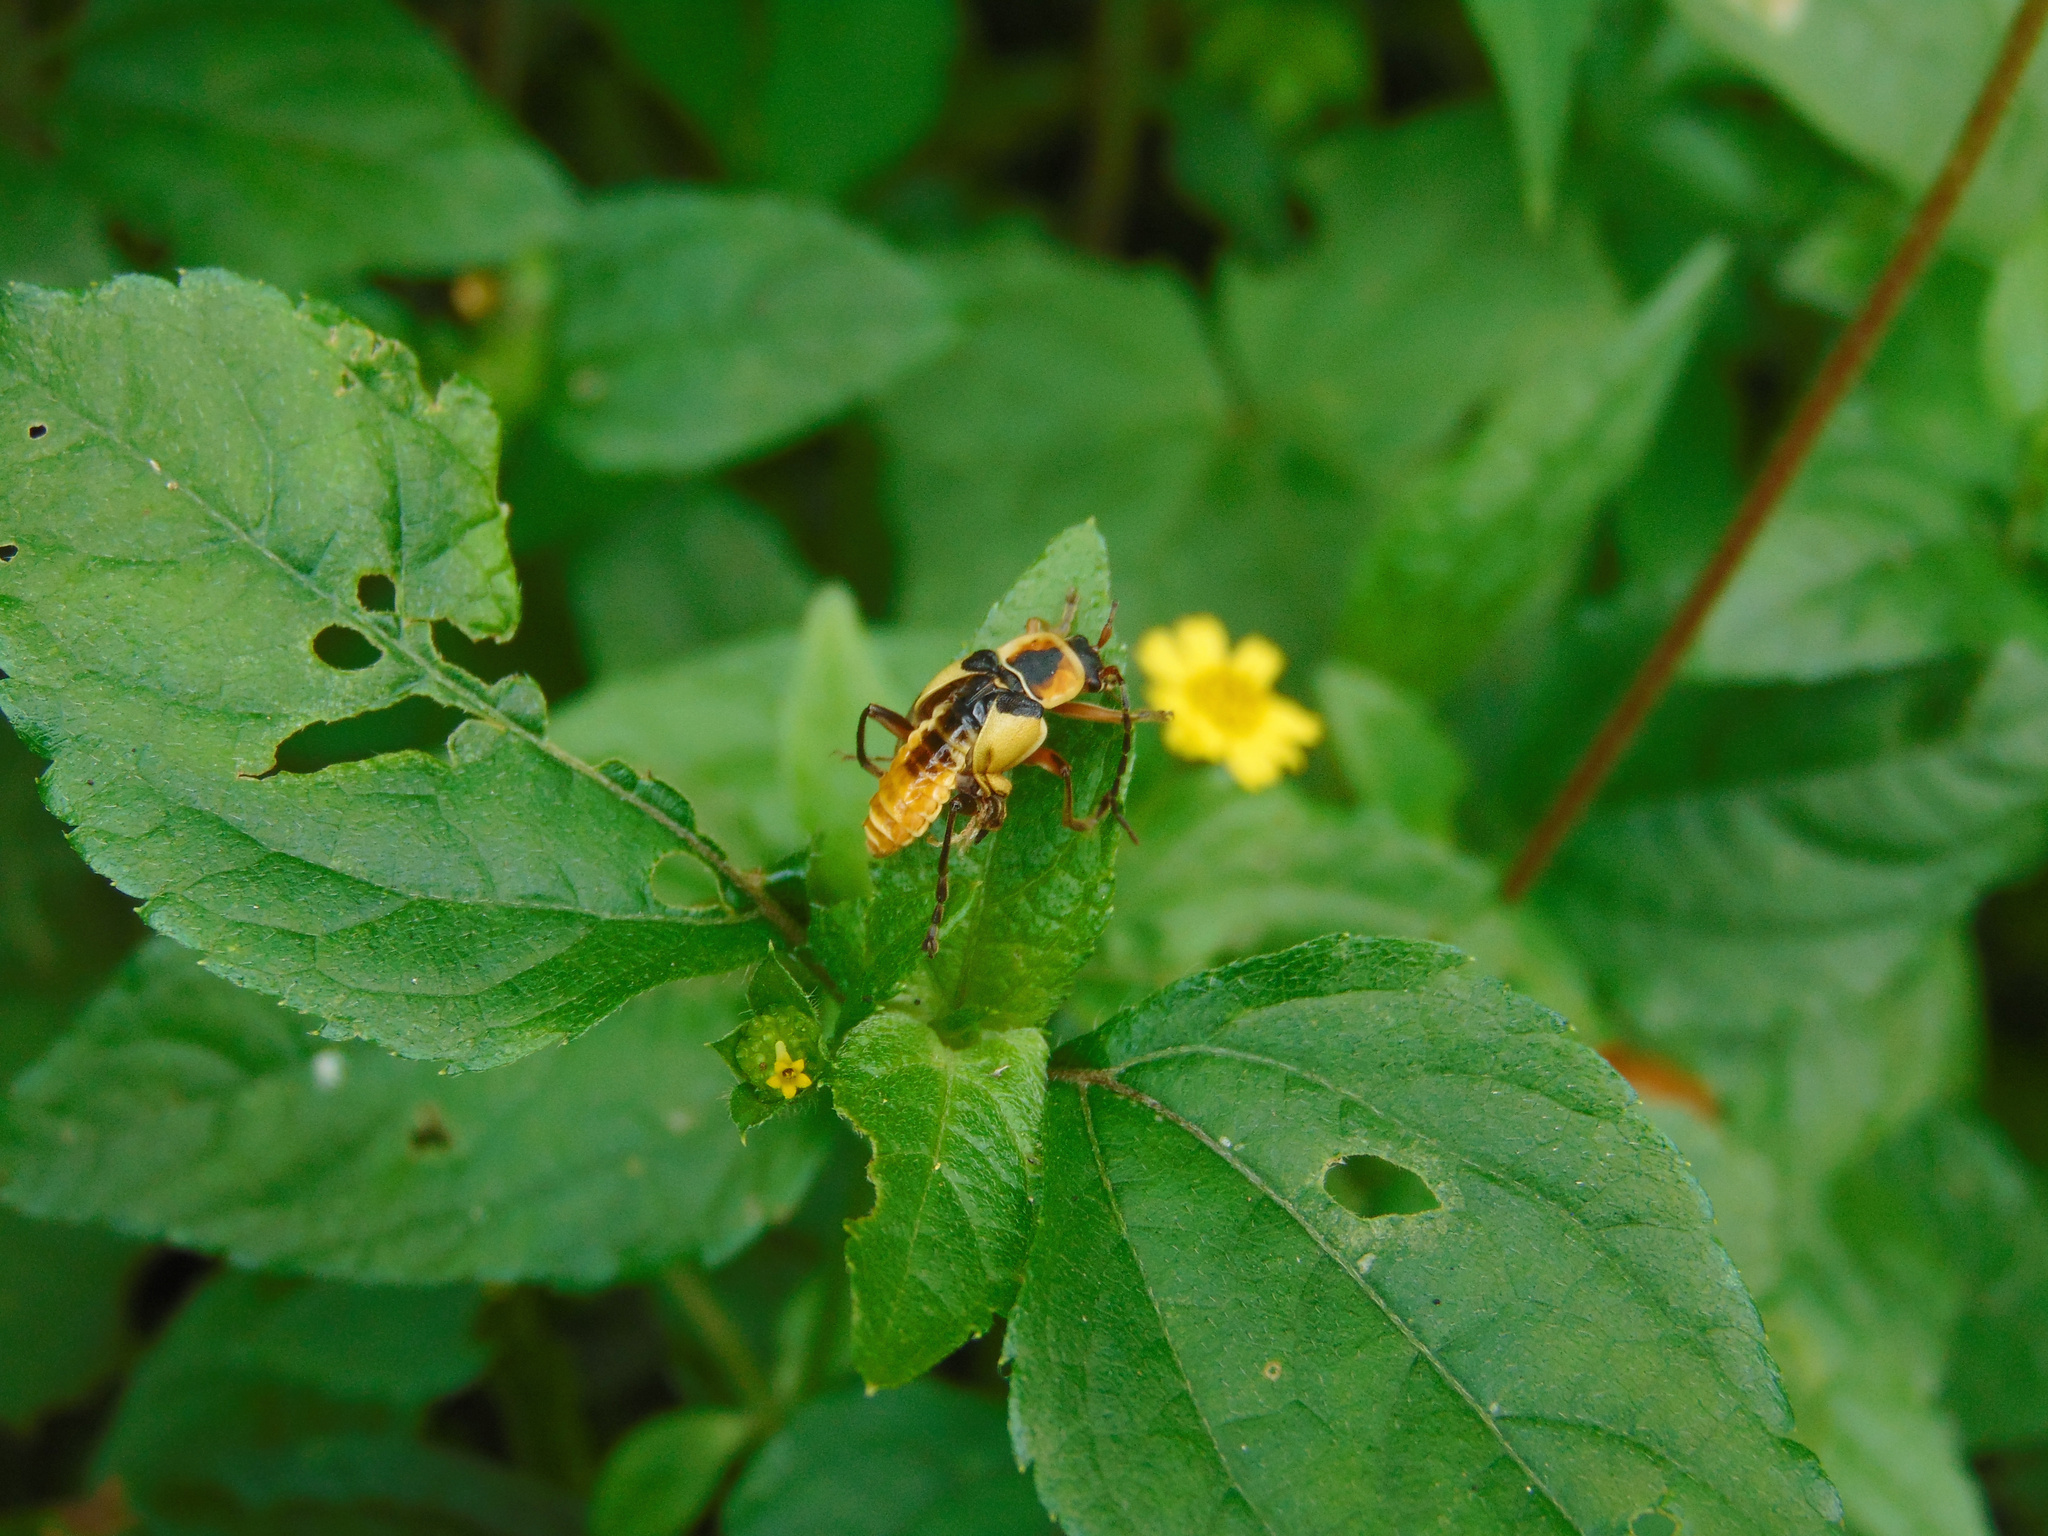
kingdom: Animalia
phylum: Arthropoda
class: Insecta
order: Coleoptera
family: Cantharidae
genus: Chauliognathus
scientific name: Chauliognathus
